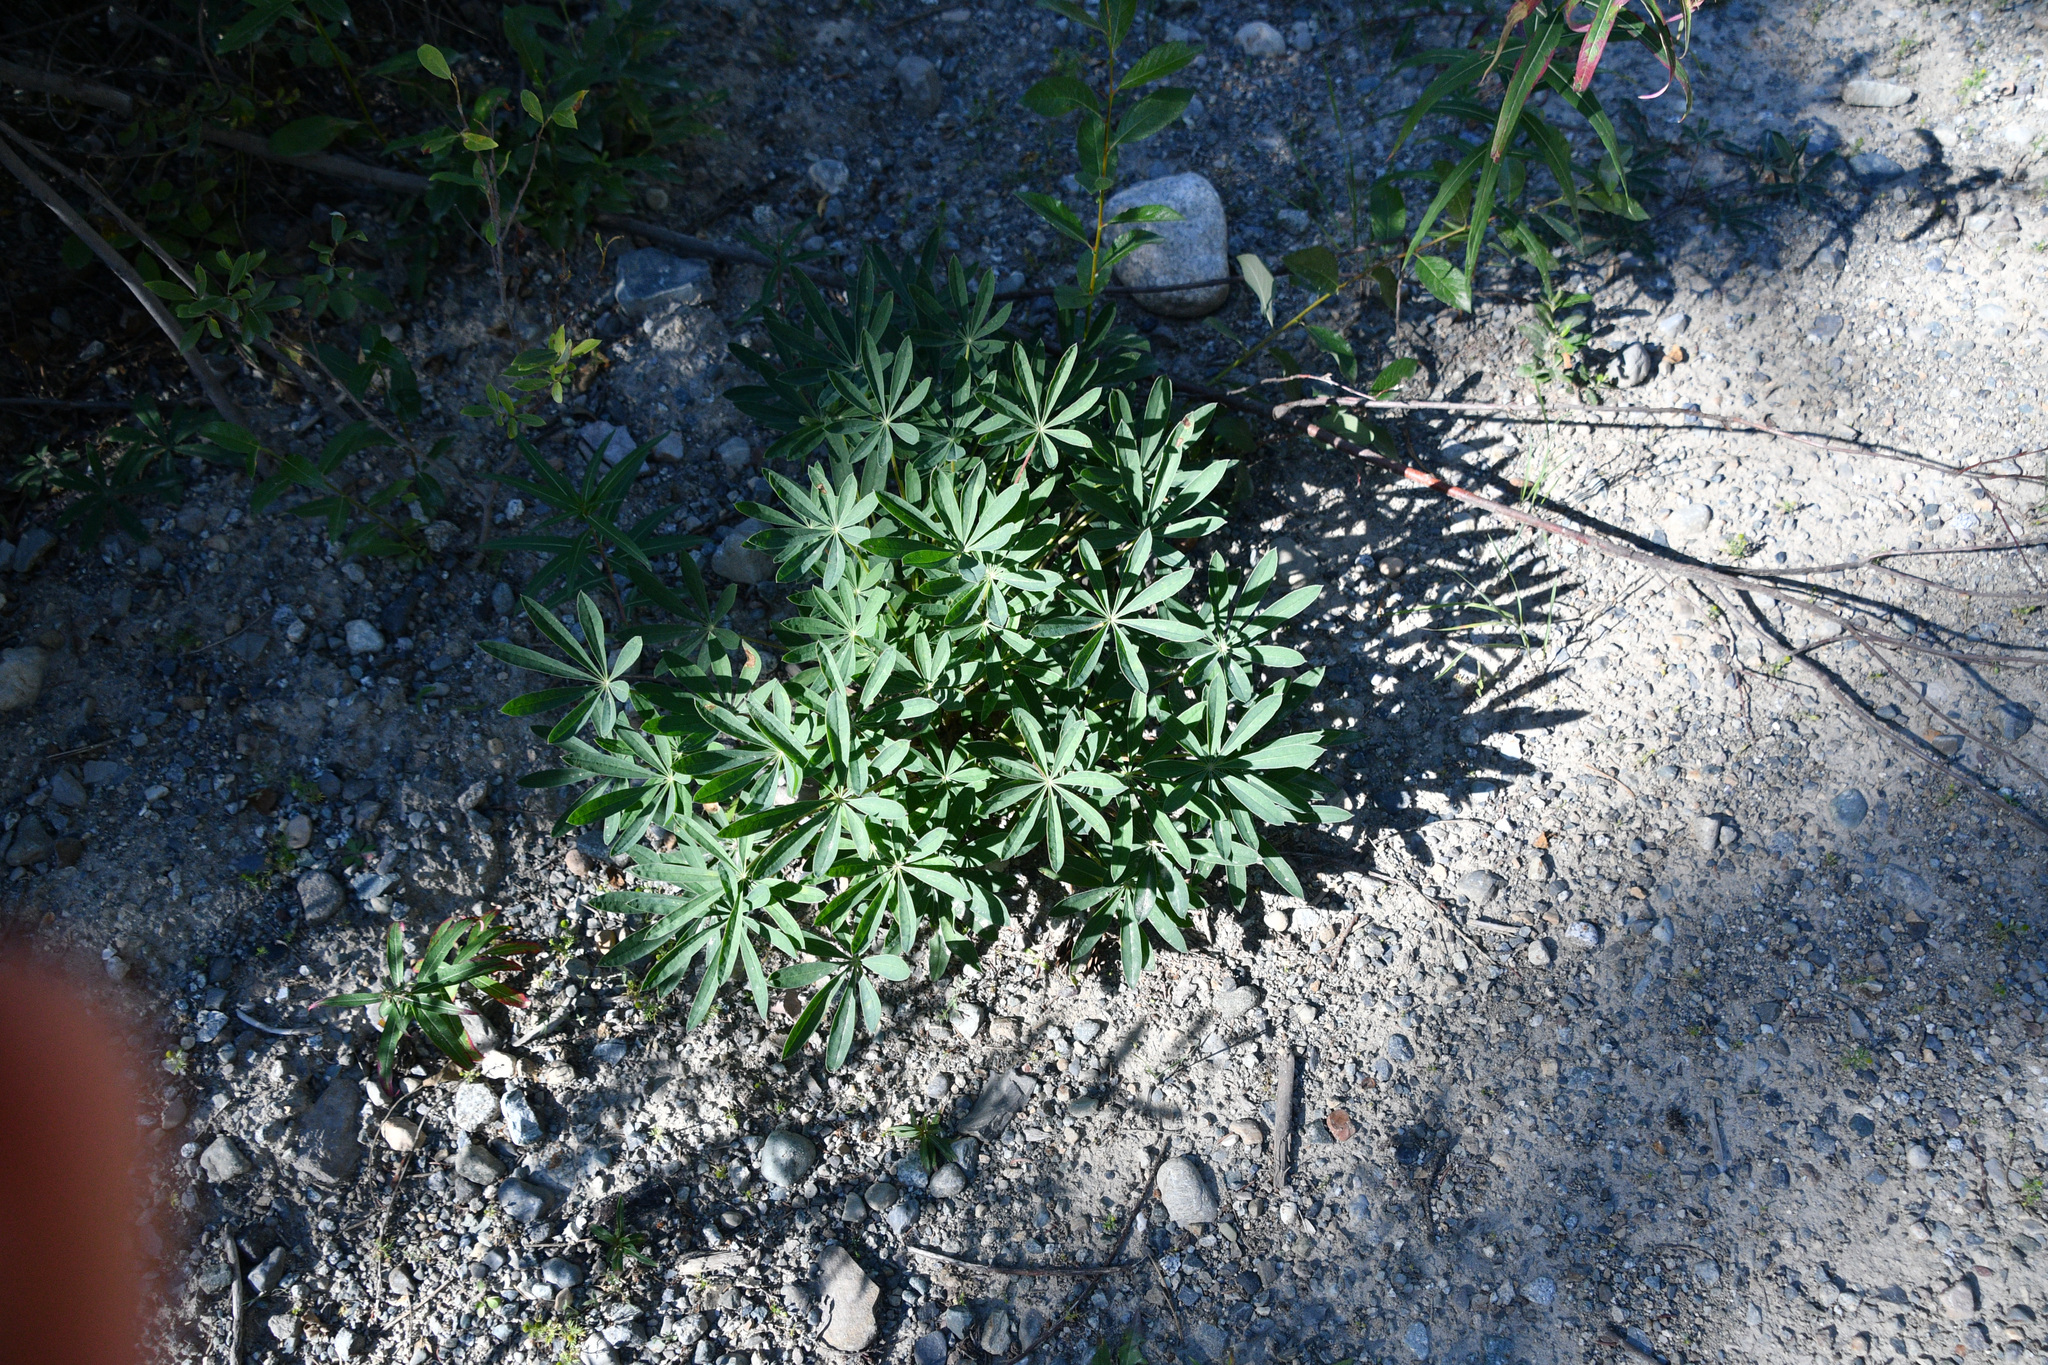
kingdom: Plantae
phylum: Tracheophyta
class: Magnoliopsida
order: Fabales
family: Fabaceae
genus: Lupinus
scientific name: Lupinus arcticus
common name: Arctic lupine
